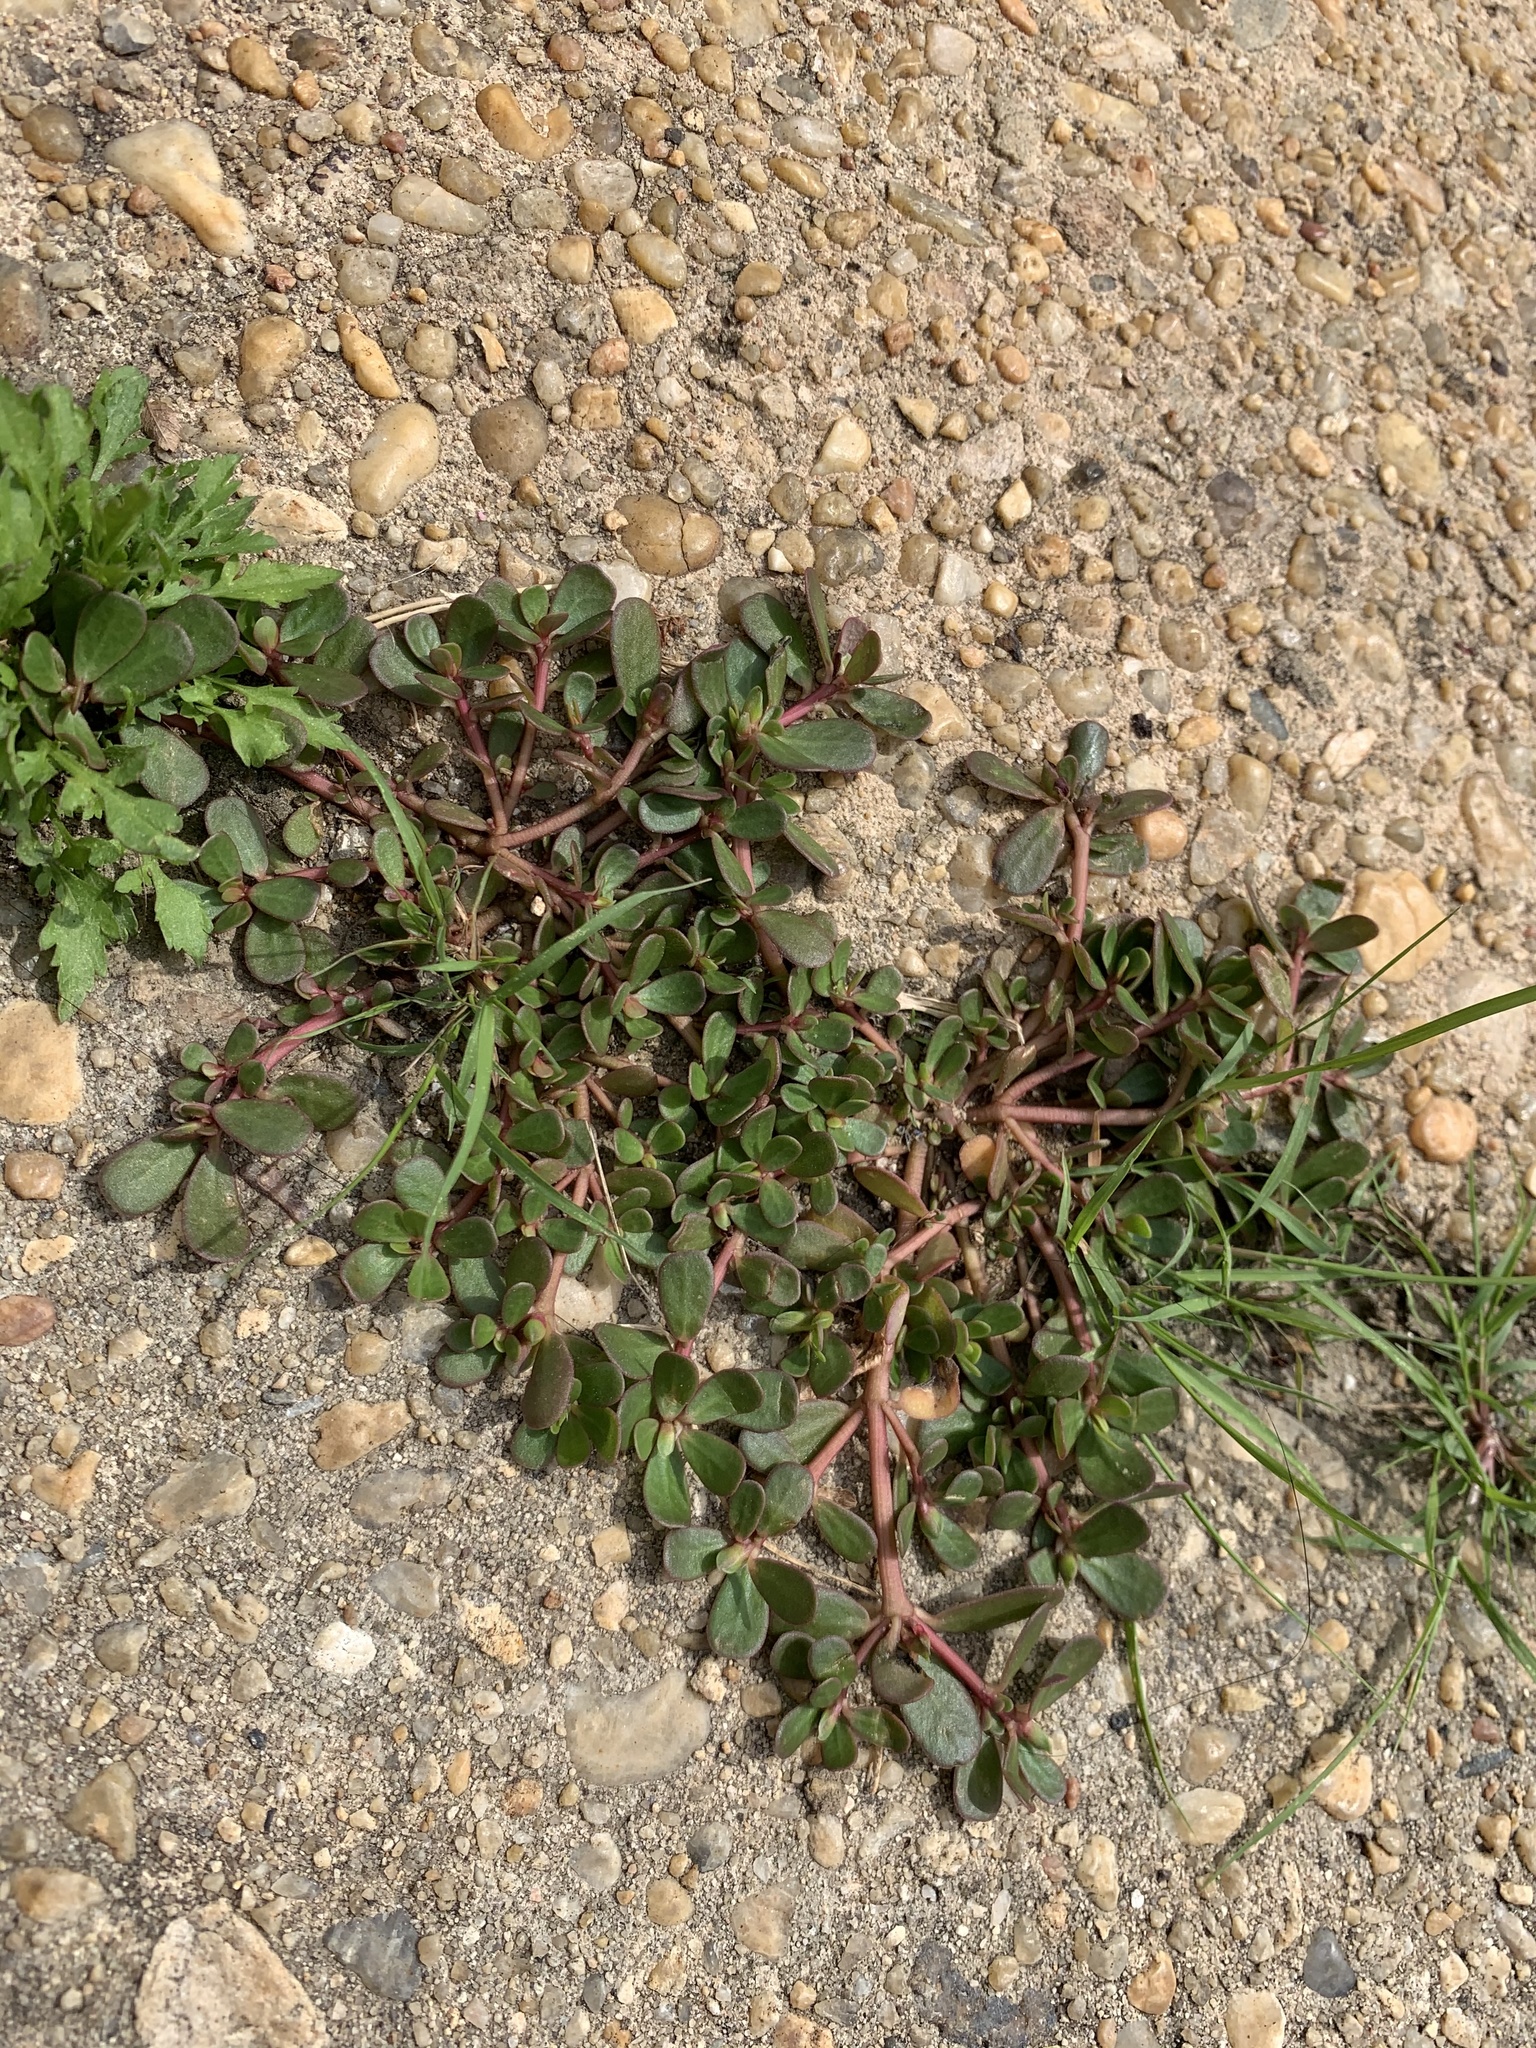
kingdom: Plantae
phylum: Tracheophyta
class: Magnoliopsida
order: Caryophyllales
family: Portulacaceae
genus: Portulaca
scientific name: Portulaca oleracea
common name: Common purslane
